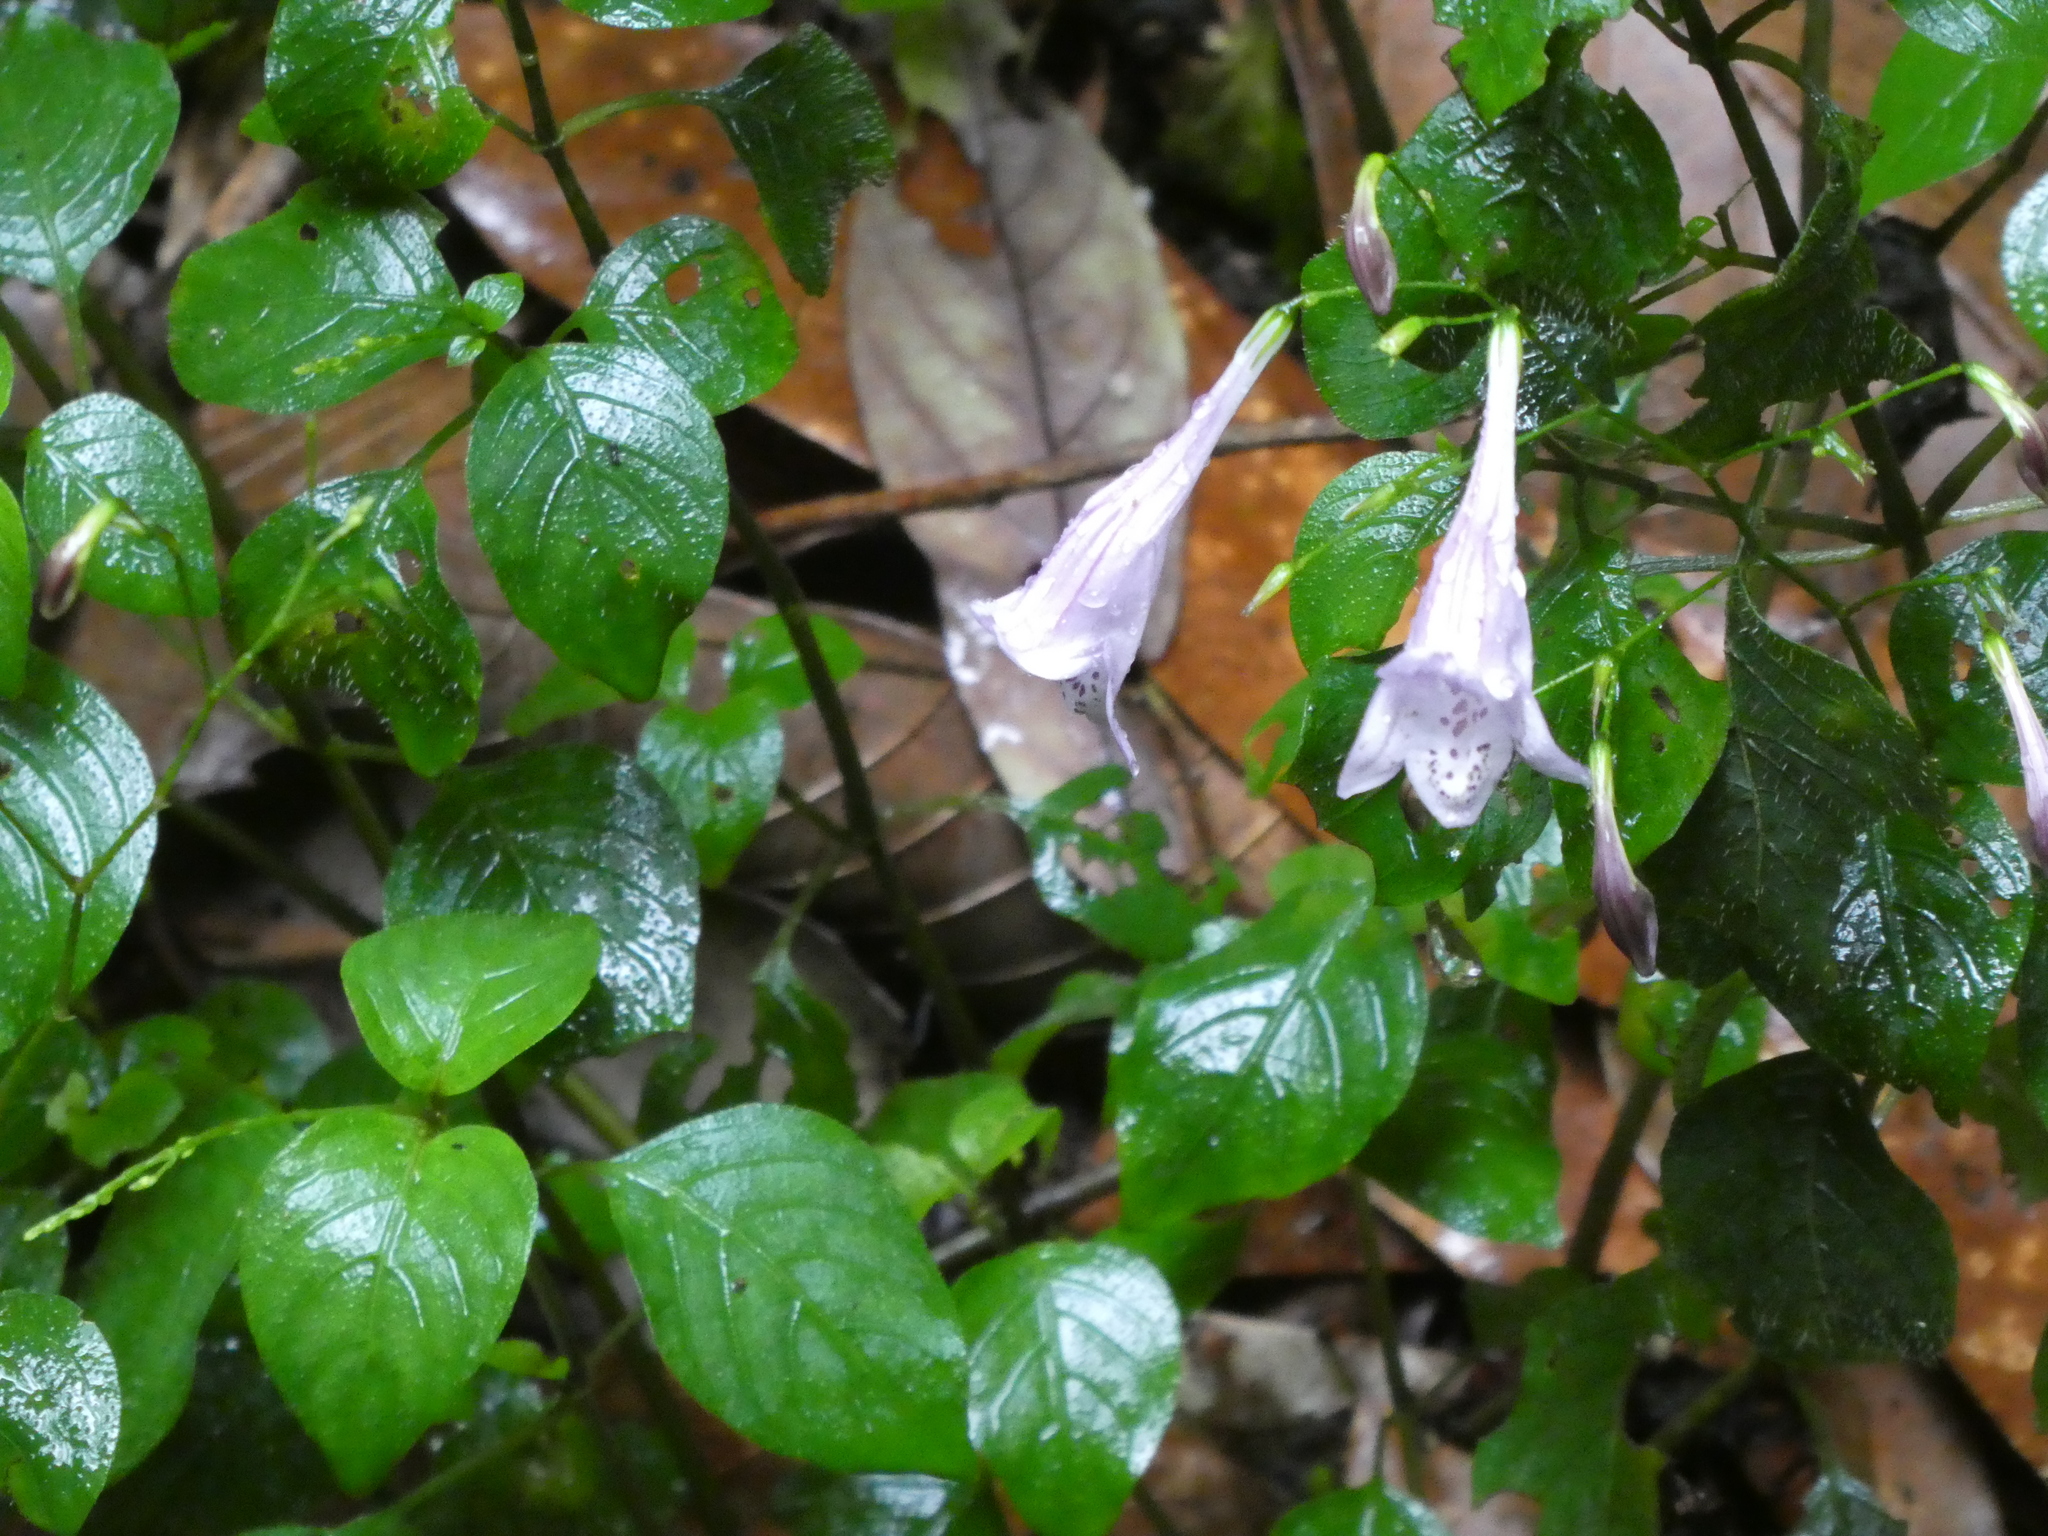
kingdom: Plantae
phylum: Tracheophyta
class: Magnoliopsida
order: Lamiales
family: Acanthaceae
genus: Isoglossa
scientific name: Isoglossa collina
